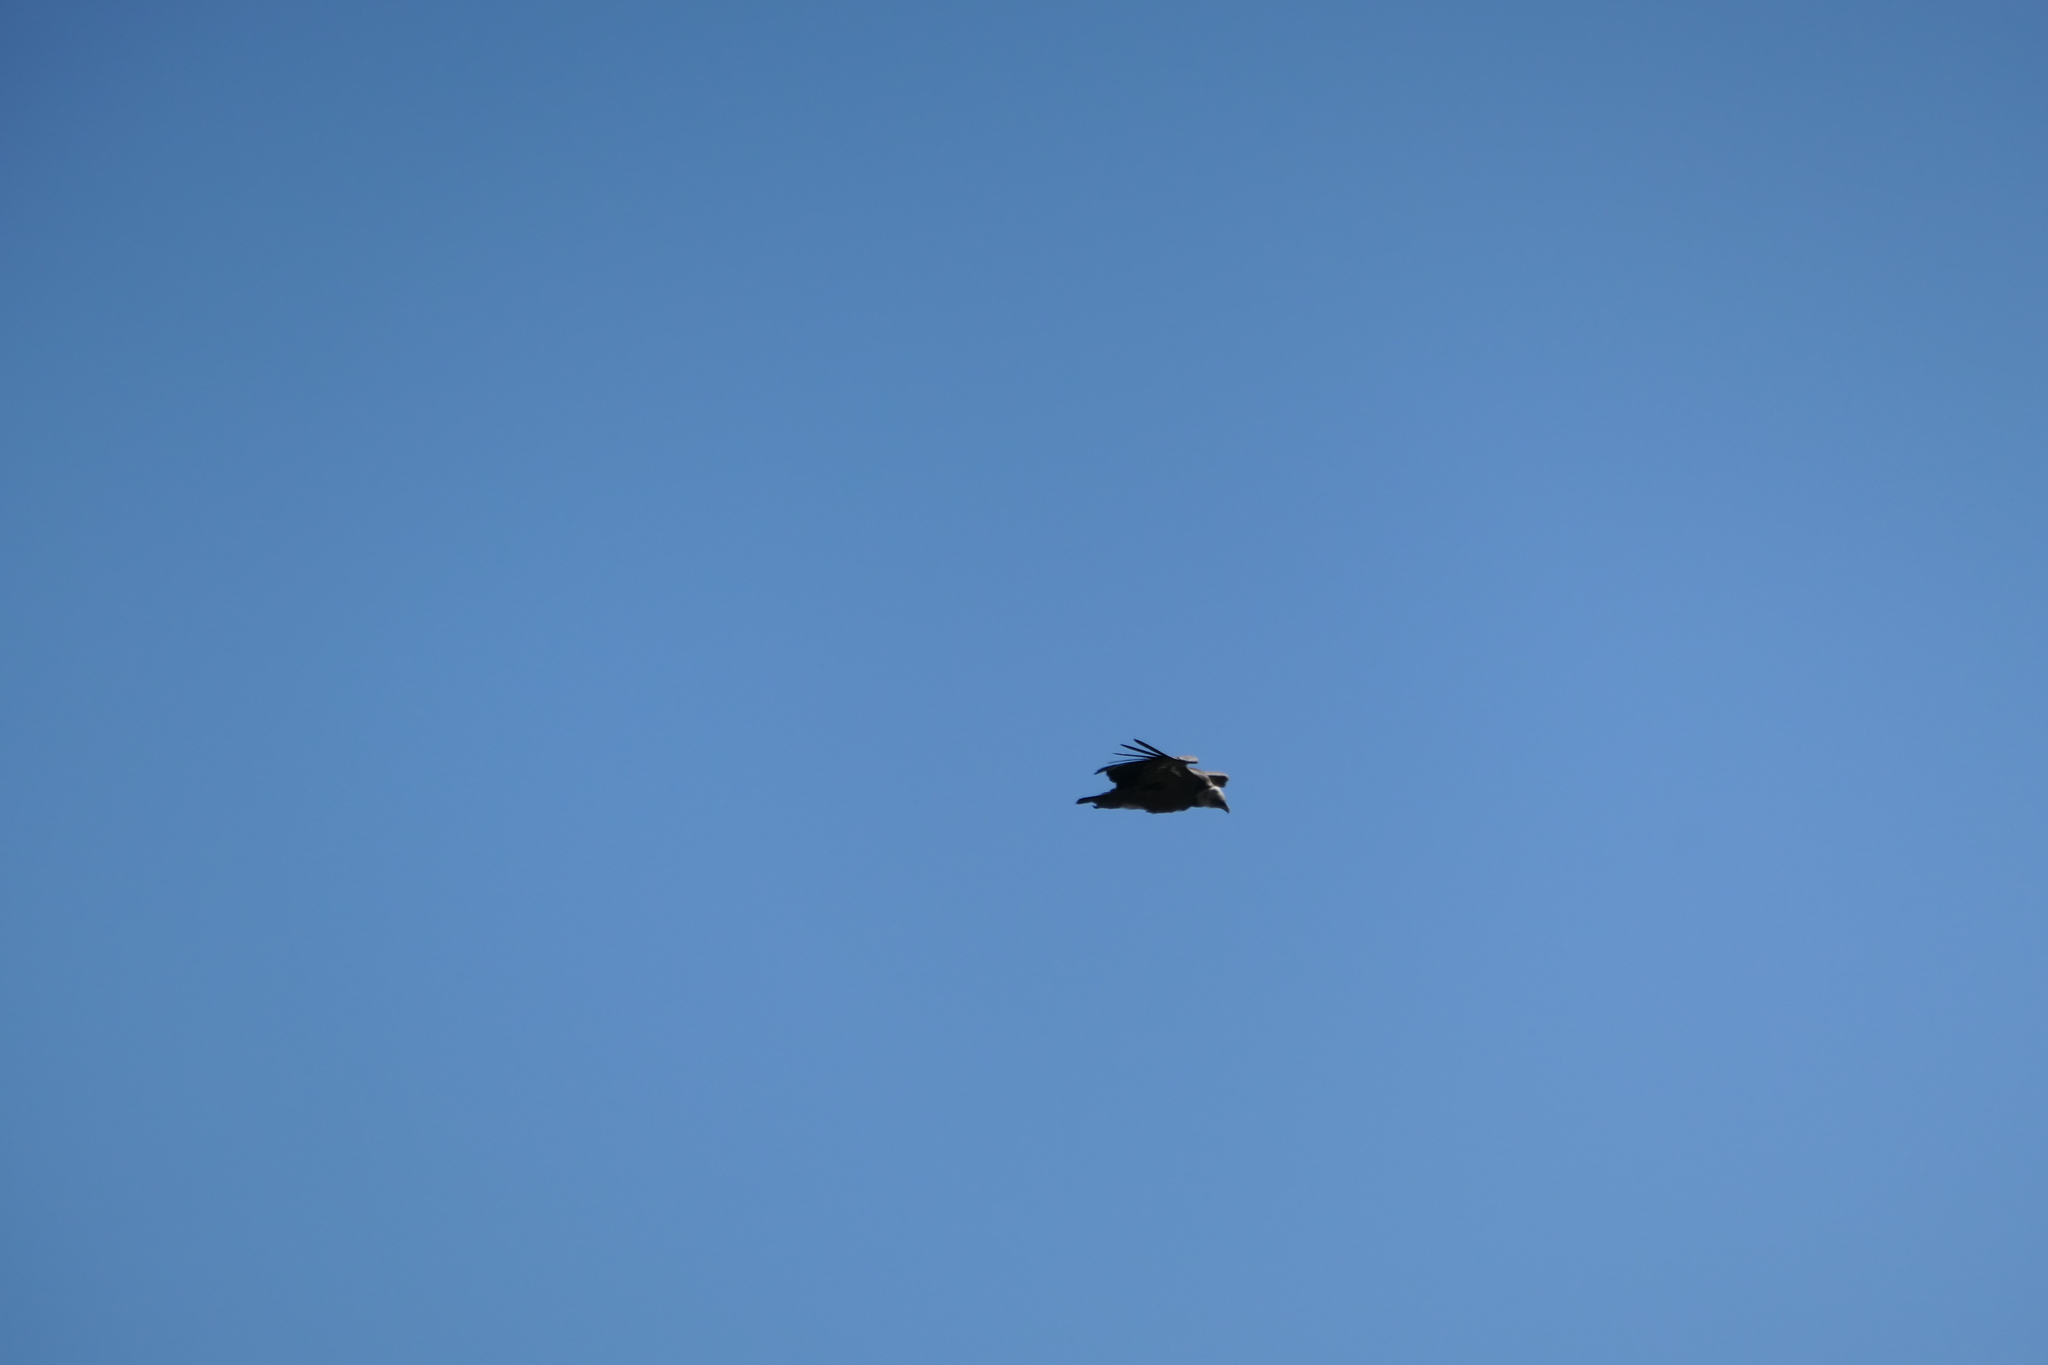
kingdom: Animalia
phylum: Chordata
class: Aves
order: Accipitriformes
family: Accipitridae
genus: Gyps
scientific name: Gyps fulvus
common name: Griffon vulture
